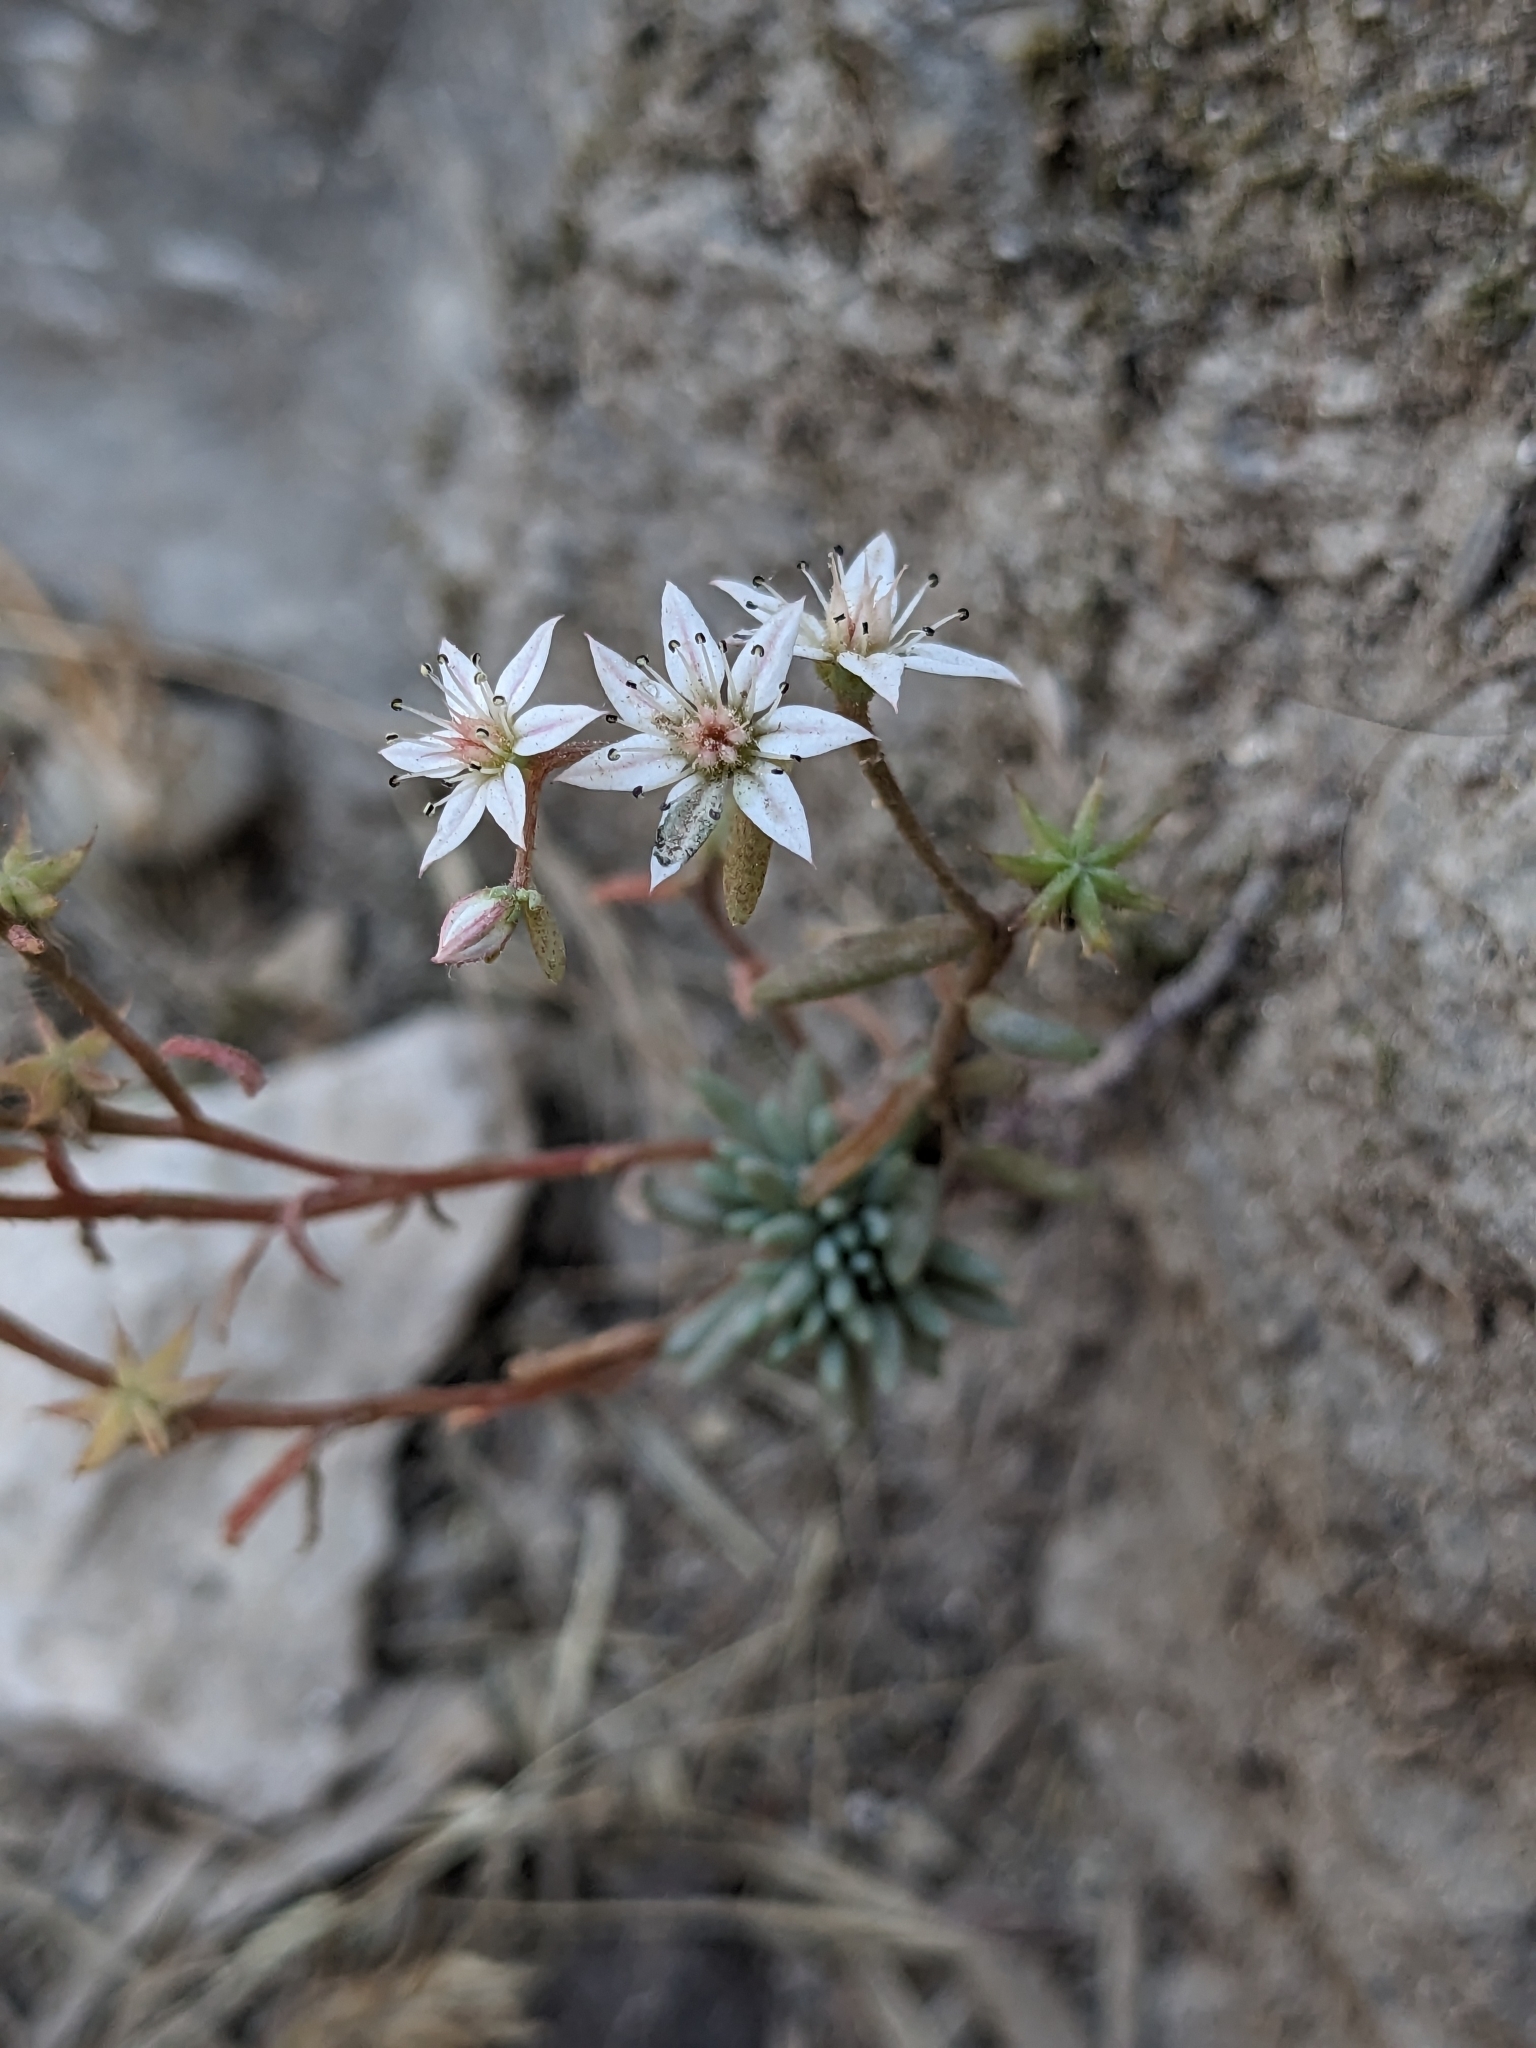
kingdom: Plantae
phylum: Tracheophyta
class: Magnoliopsida
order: Saxifragales
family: Crassulaceae
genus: Sedum
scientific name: Sedum hispanicum
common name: Spanish stonecrop
